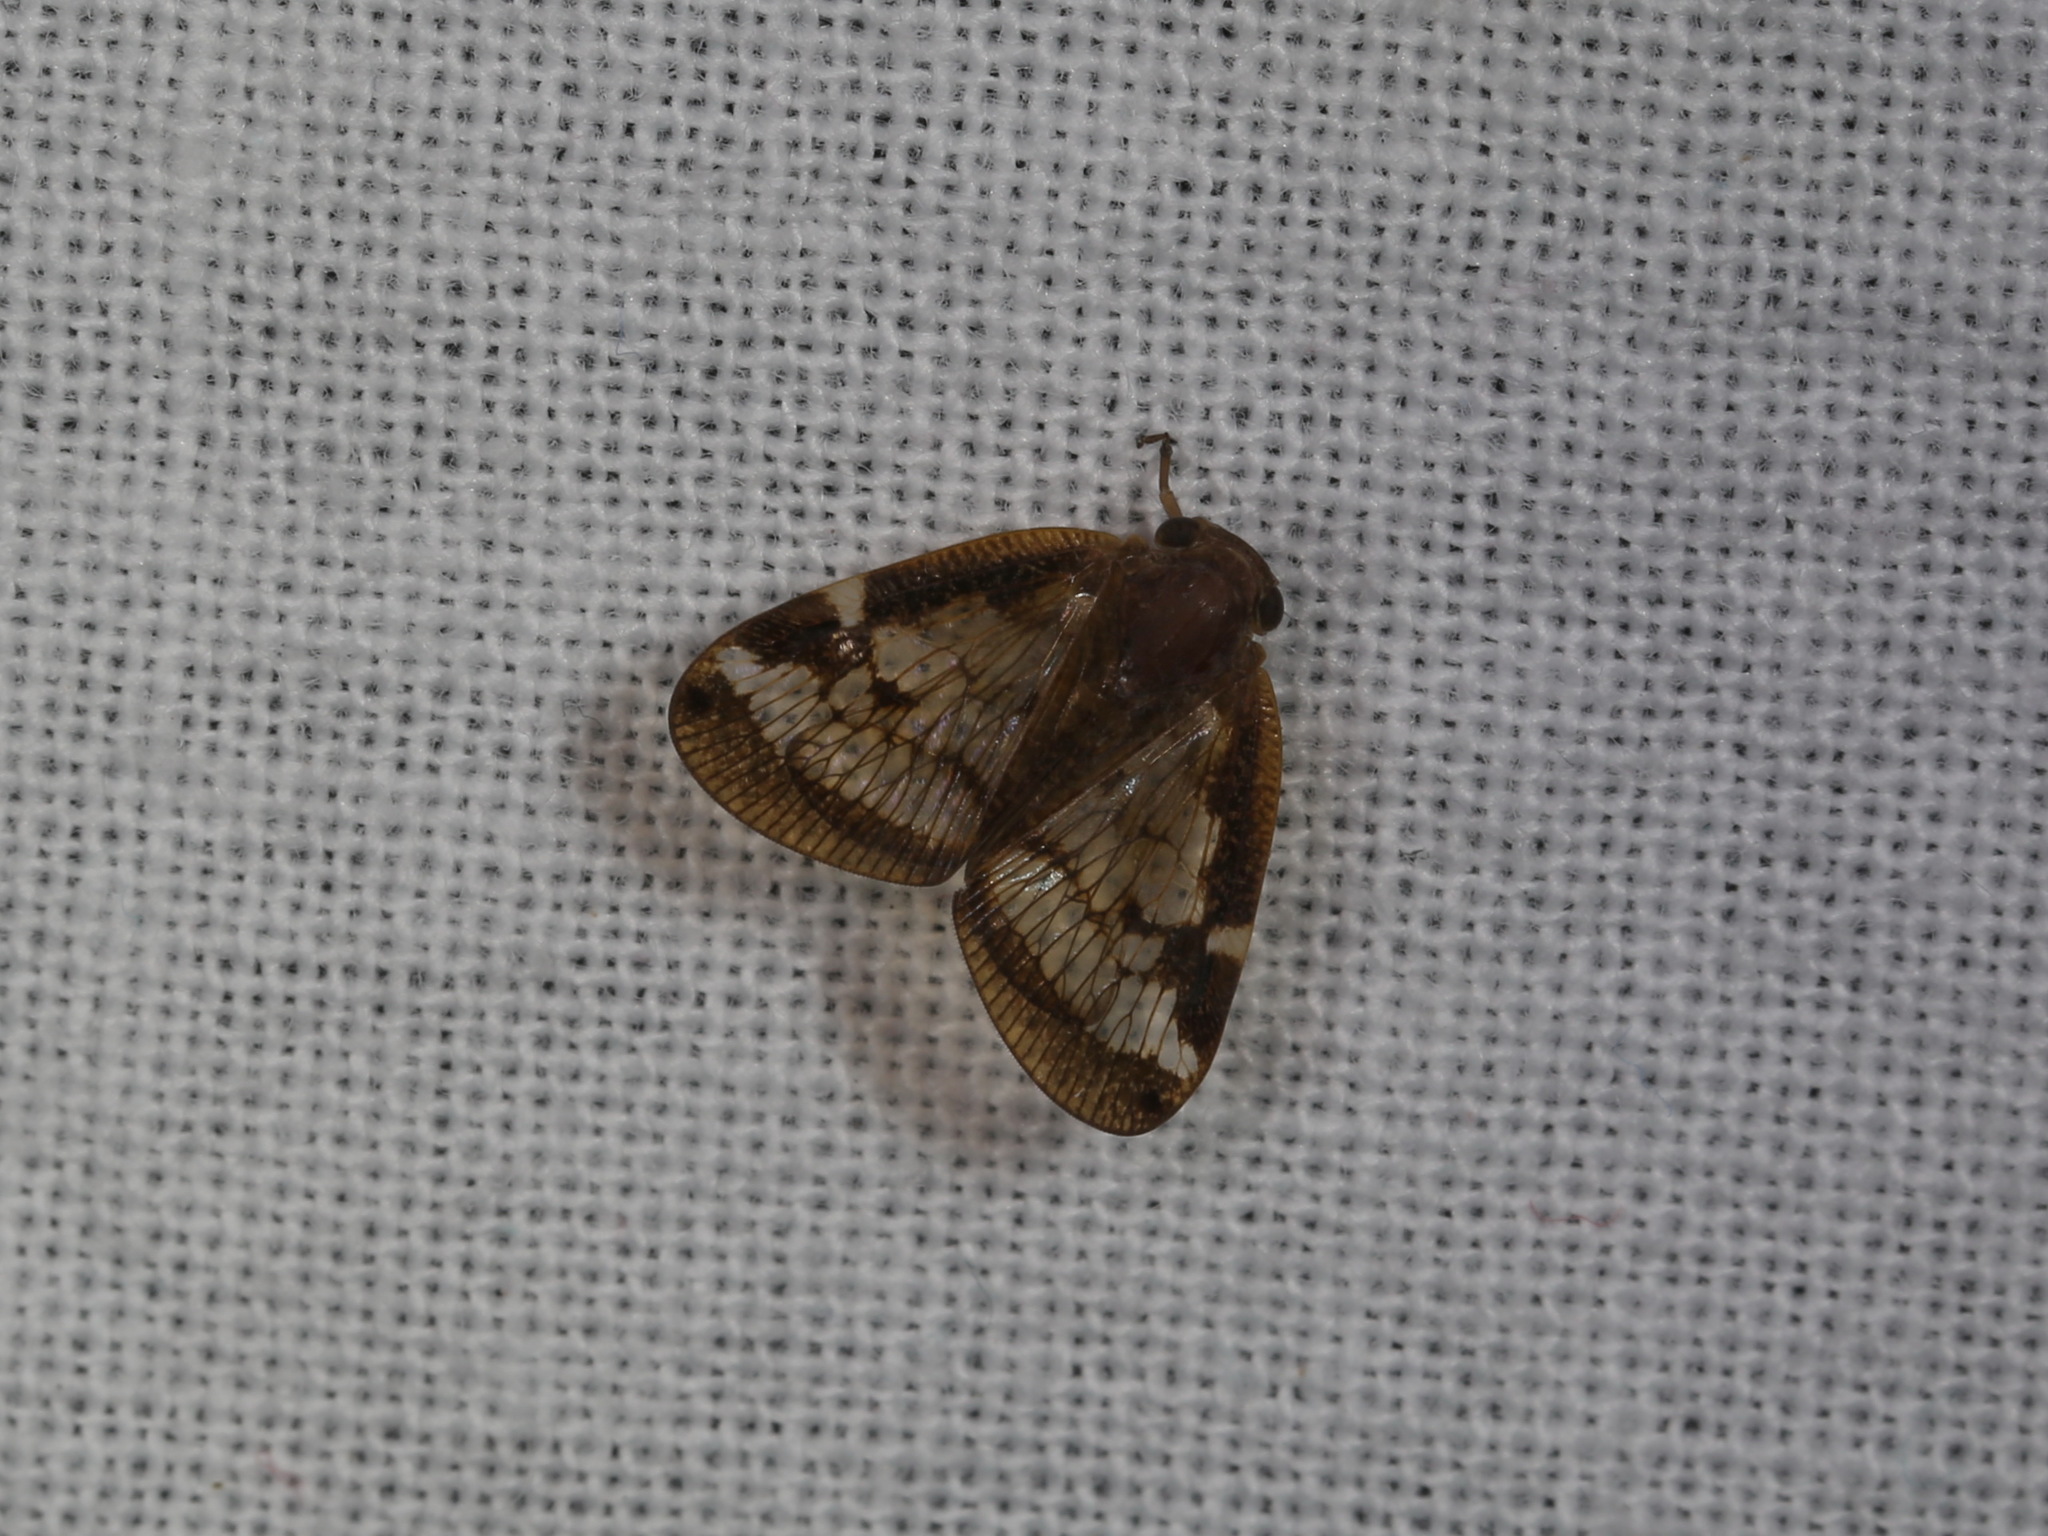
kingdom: Animalia
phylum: Arthropoda
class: Insecta
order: Hemiptera
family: Ricaniidae
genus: Scolypopa
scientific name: Scolypopa australis
